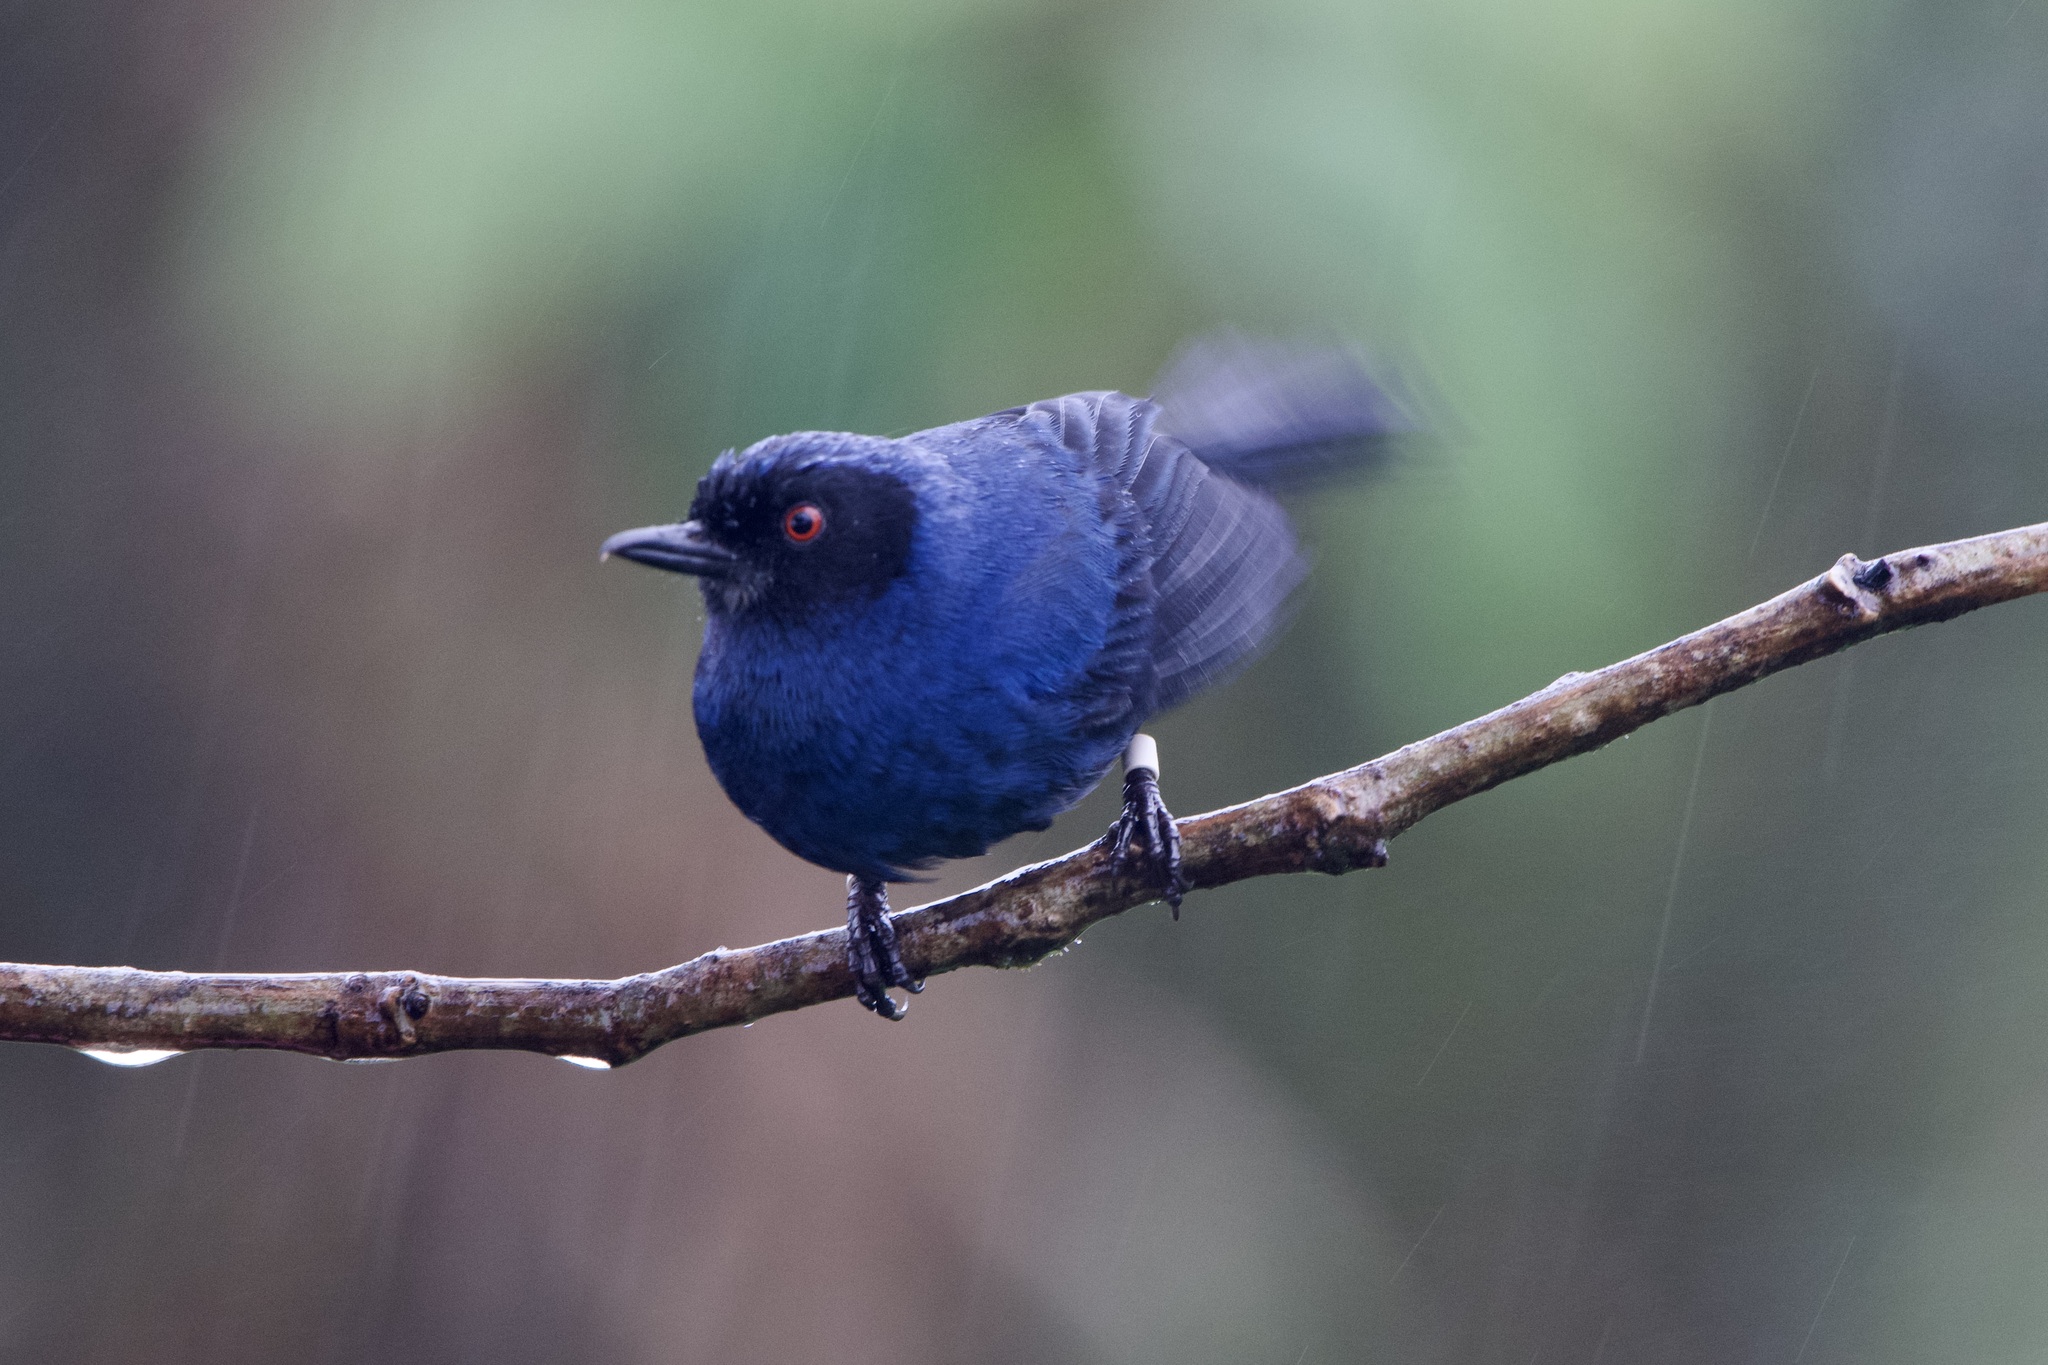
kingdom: Animalia
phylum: Chordata
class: Aves
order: Passeriformes
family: Thraupidae
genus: Diglossa
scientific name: Diglossa cyanea
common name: Masked flowerpiercer
